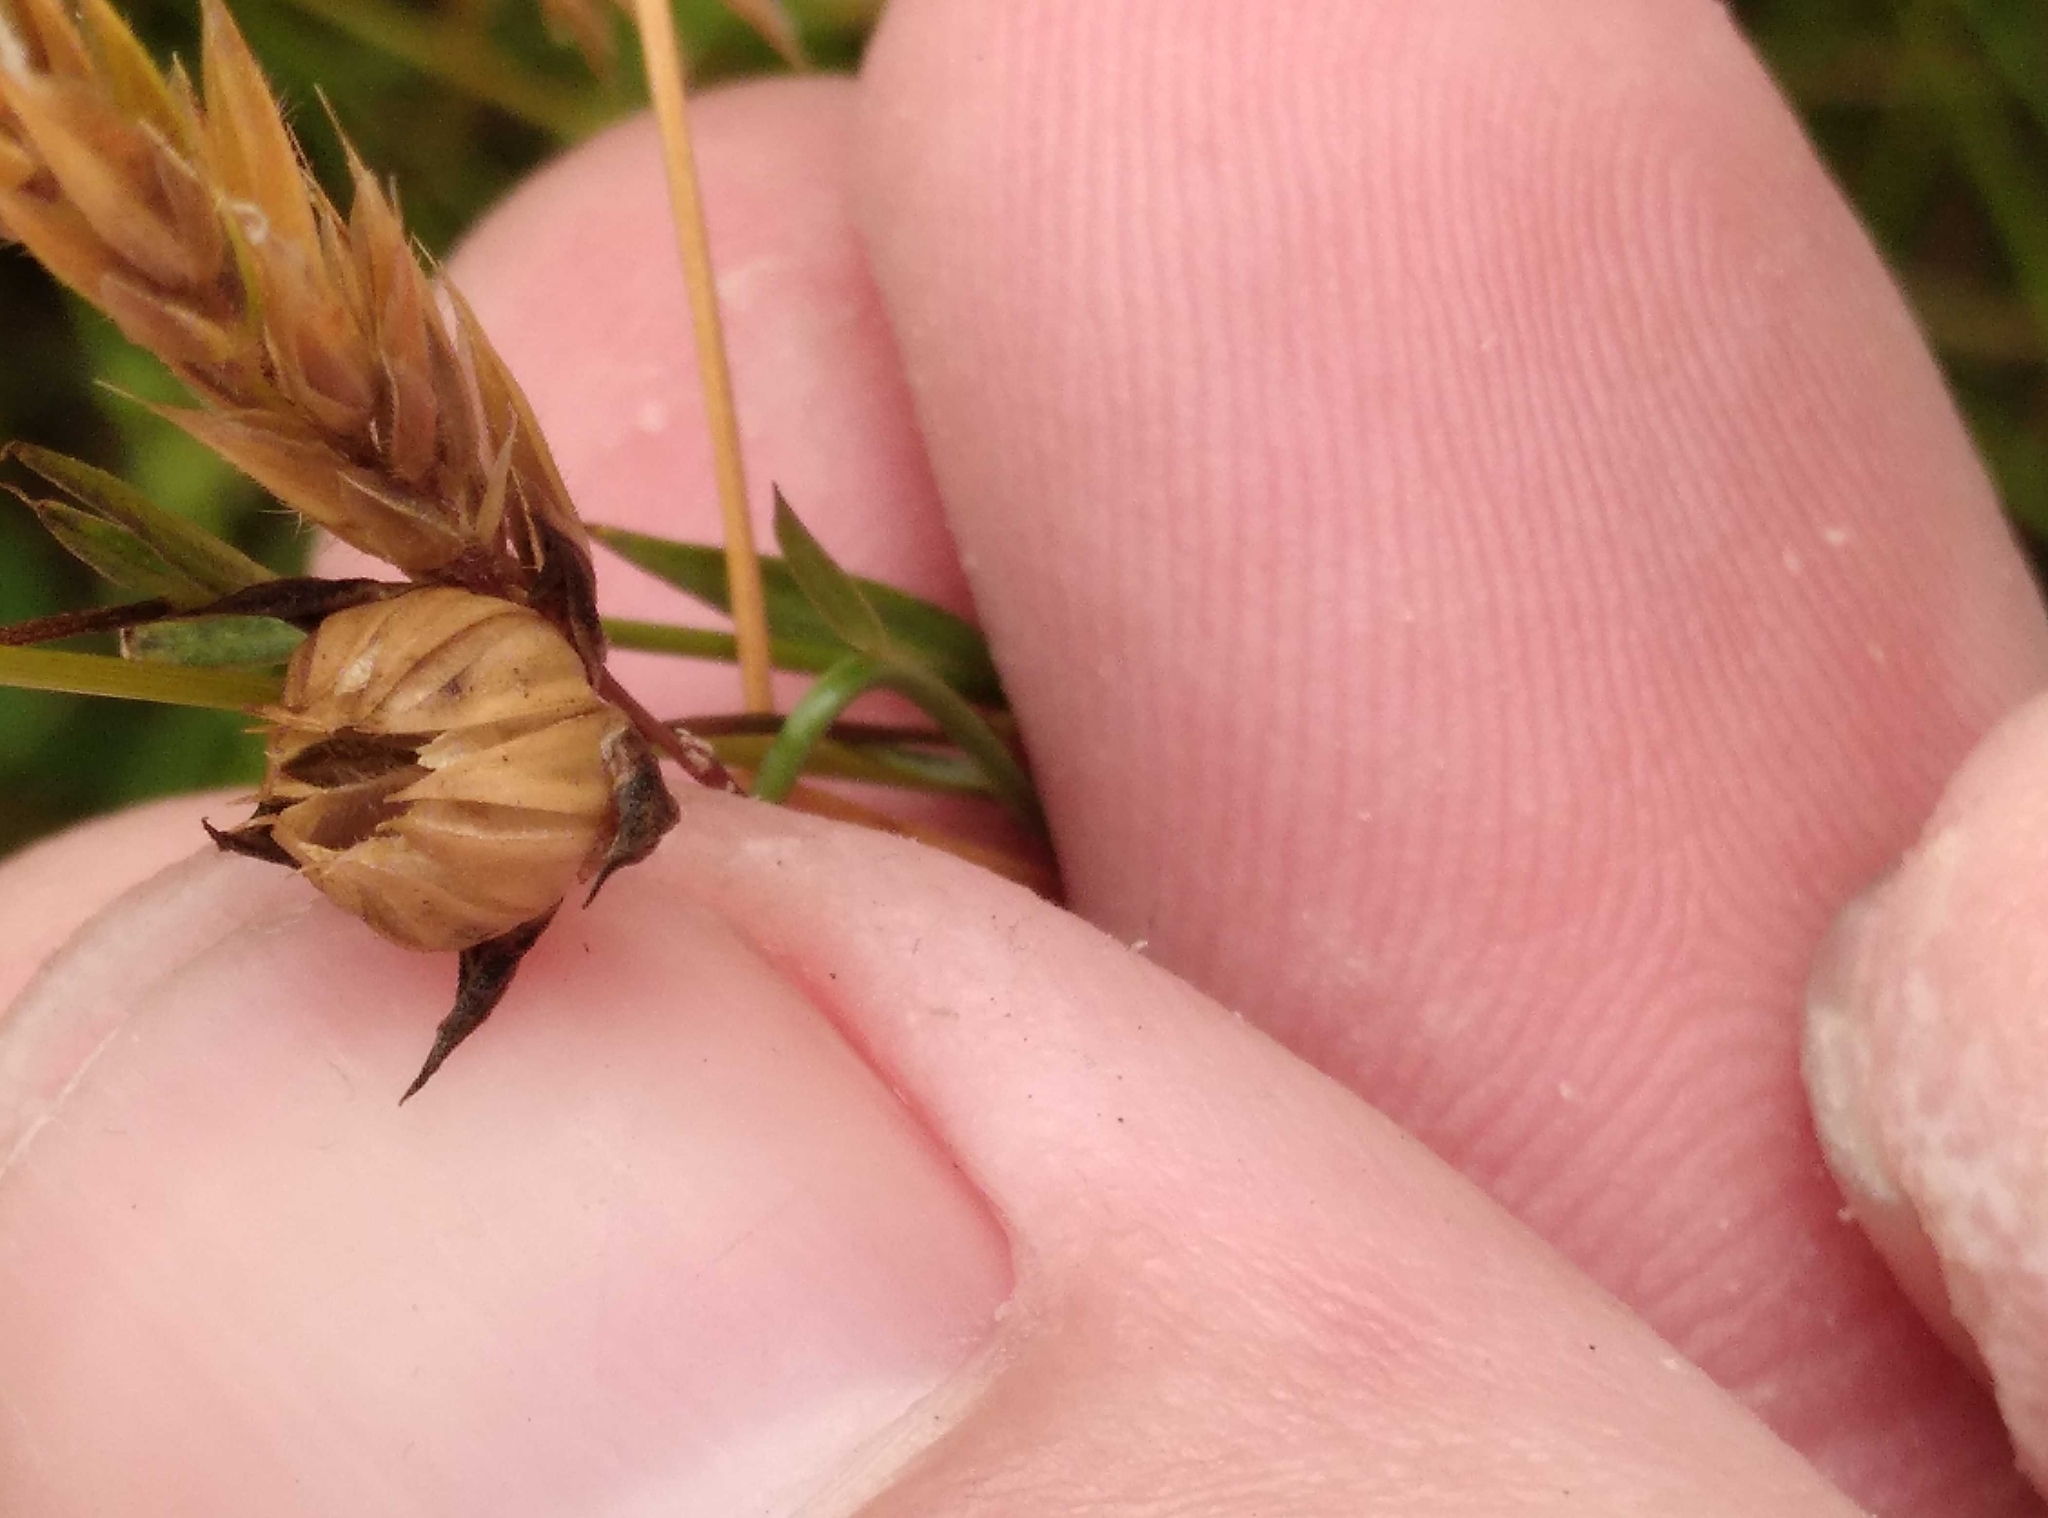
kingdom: Plantae
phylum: Tracheophyta
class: Magnoliopsida
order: Malpighiales
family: Linaceae
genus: Linum
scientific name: Linum bienne
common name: Pale flax
